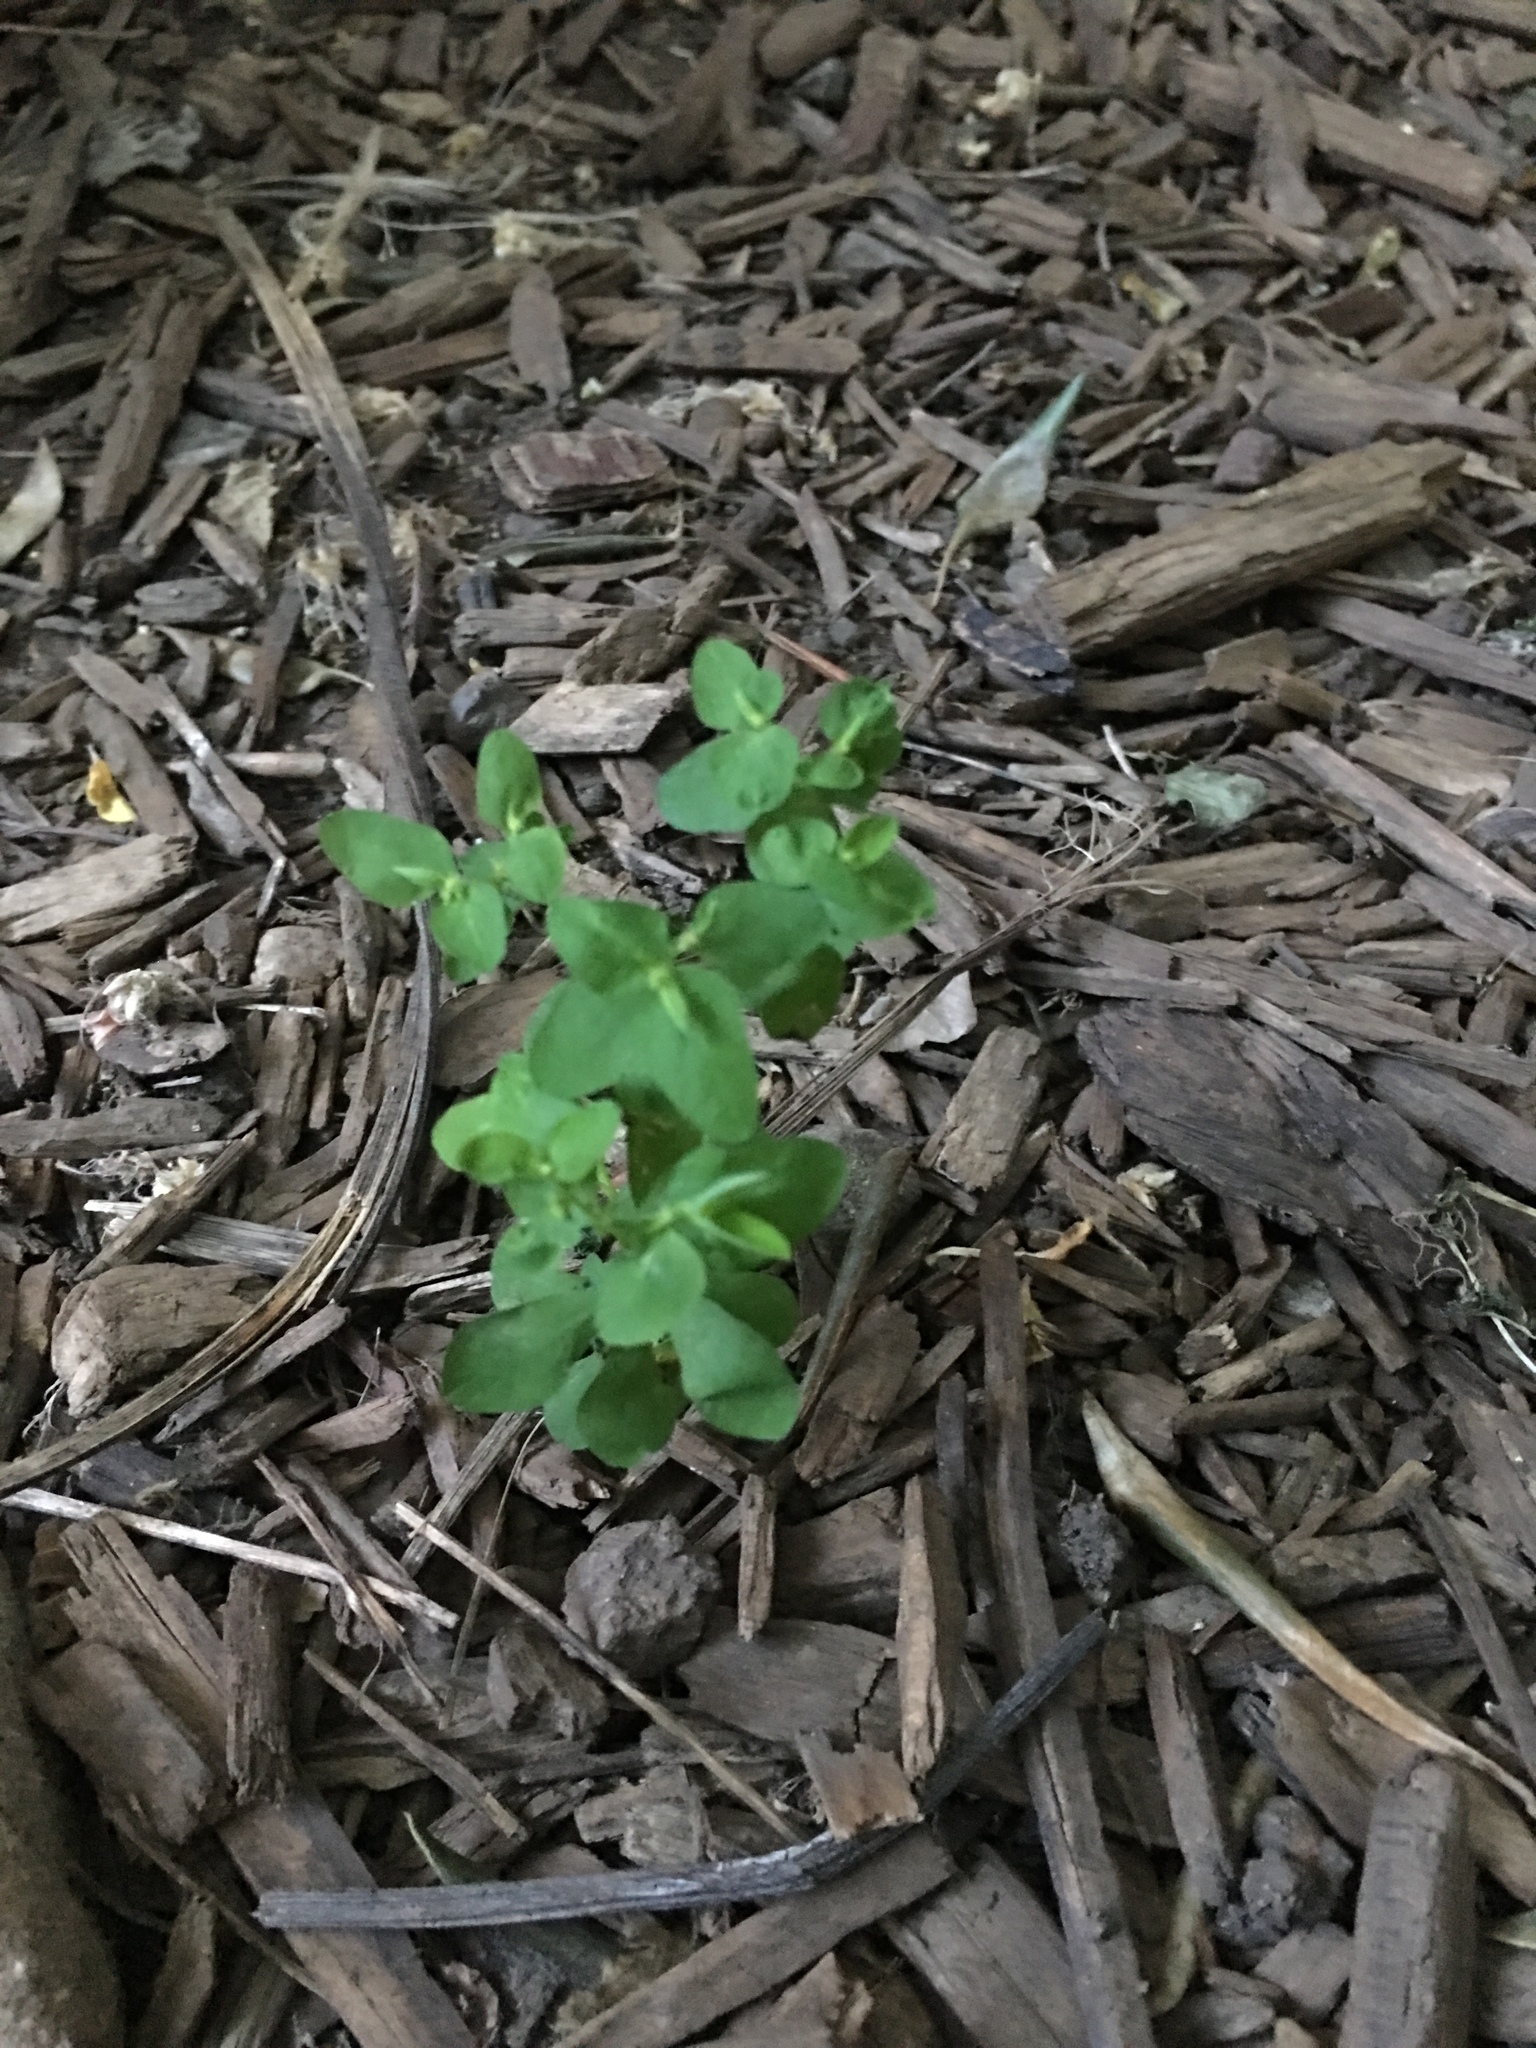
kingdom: Plantae
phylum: Tracheophyta
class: Magnoliopsida
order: Malpighiales
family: Euphorbiaceae
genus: Euphorbia
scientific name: Euphorbia peplus
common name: Petty spurge
